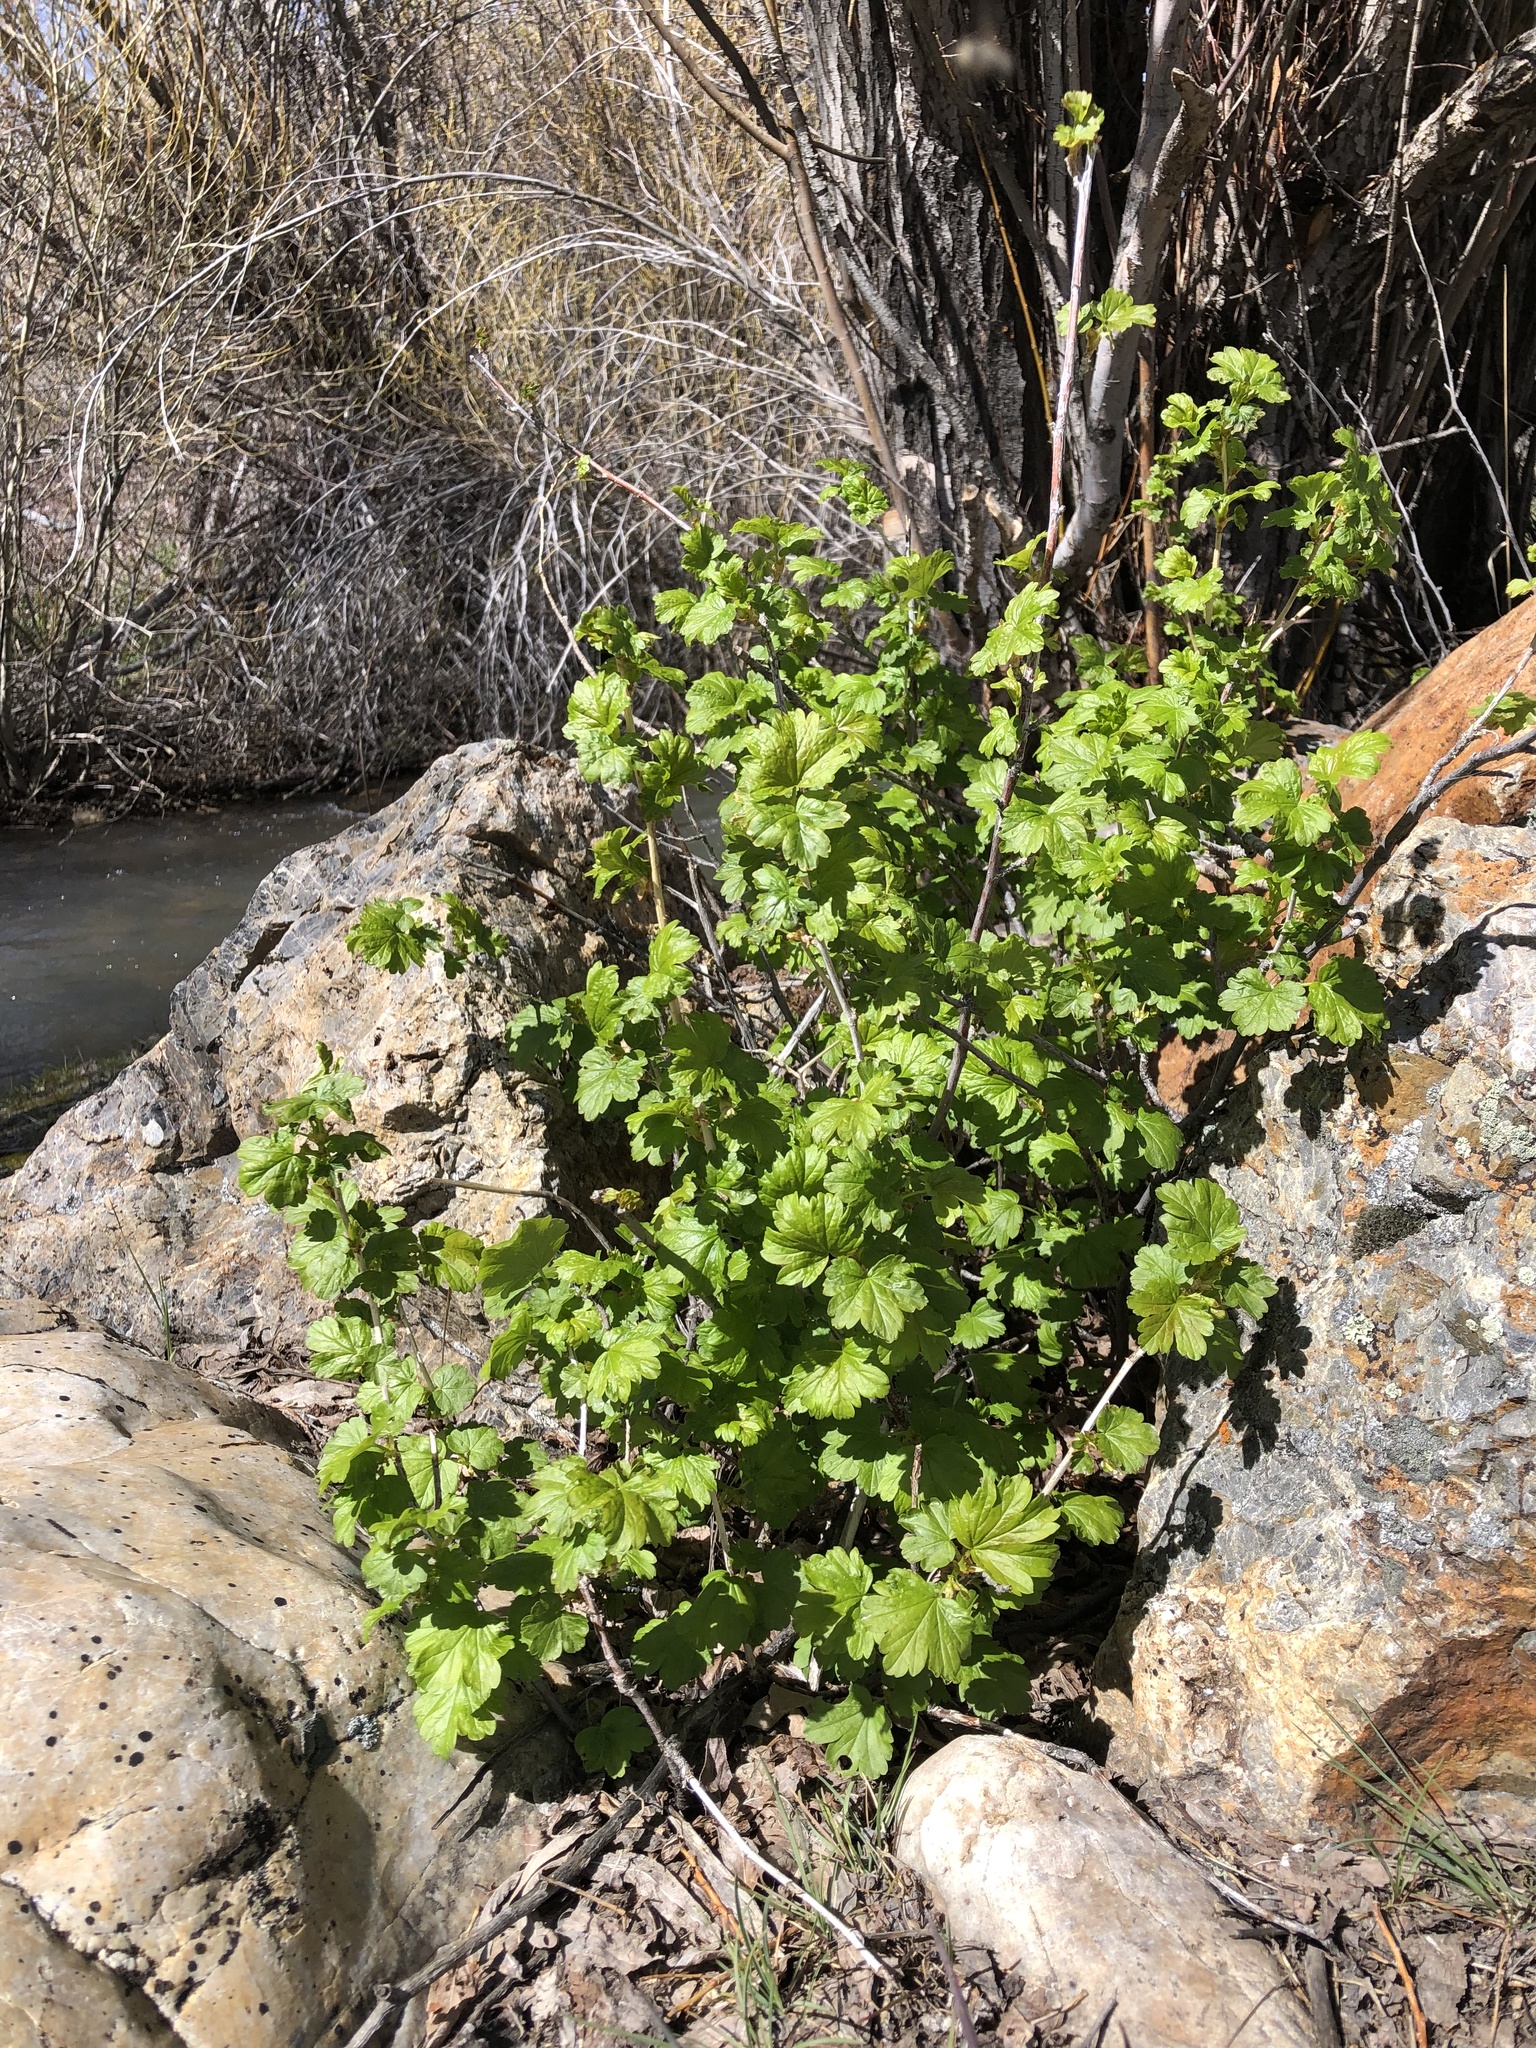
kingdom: Plantae
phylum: Tracheophyta
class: Magnoliopsida
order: Saxifragales
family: Grossulariaceae
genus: Ribes
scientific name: Ribes inerme
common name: White-stem gooseberry
